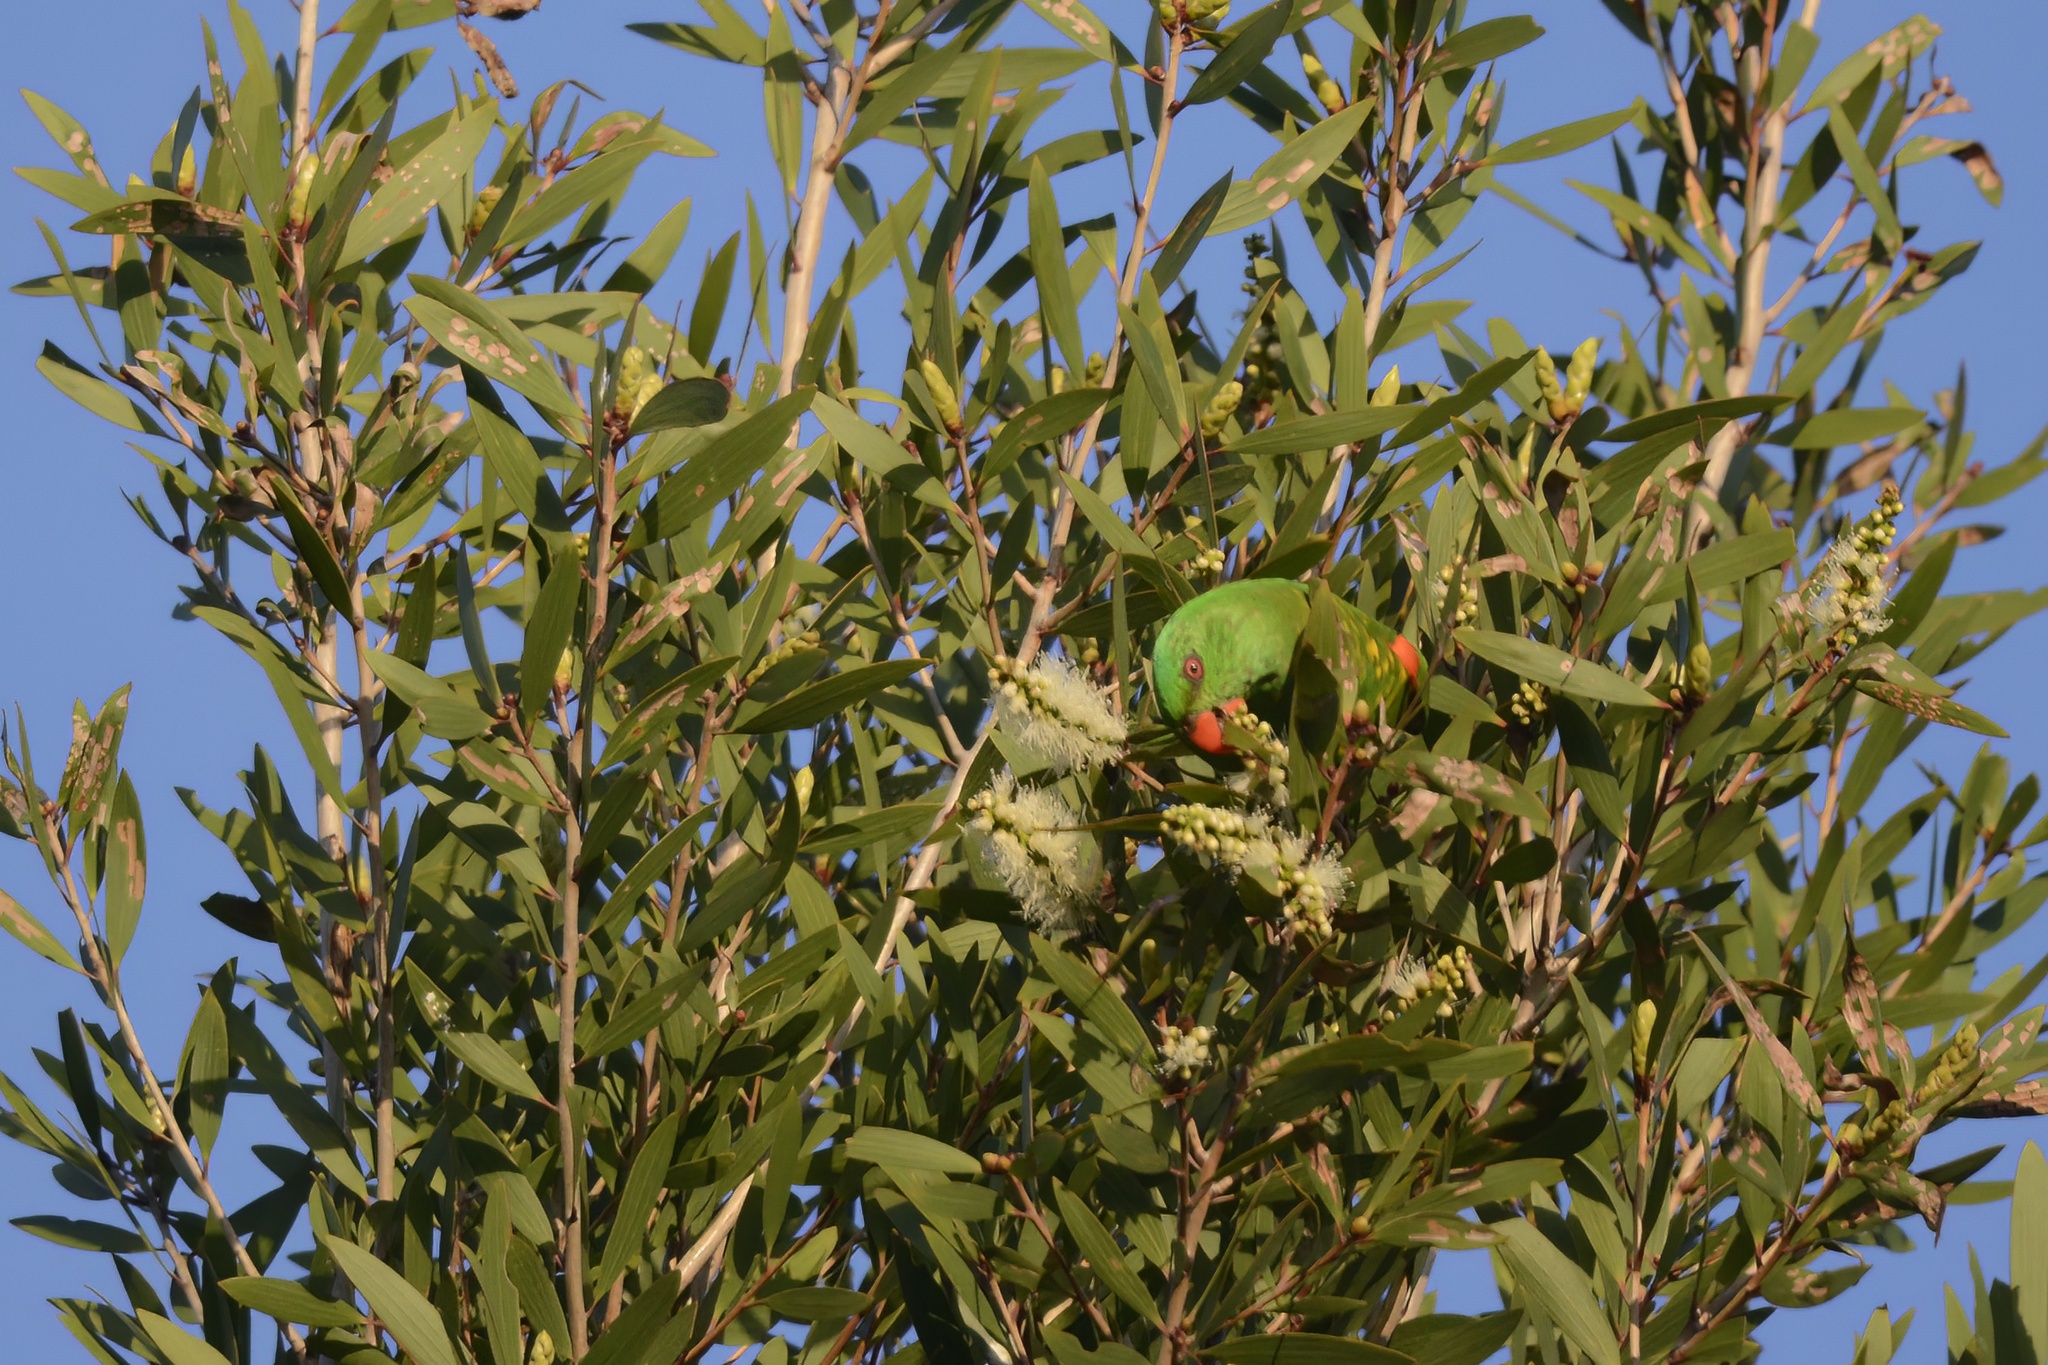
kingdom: Animalia
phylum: Chordata
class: Aves
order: Psittaciformes
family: Psittacidae
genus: Trichoglossus
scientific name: Trichoglossus chlorolepidotus
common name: Scaly-breasted lorikeet
